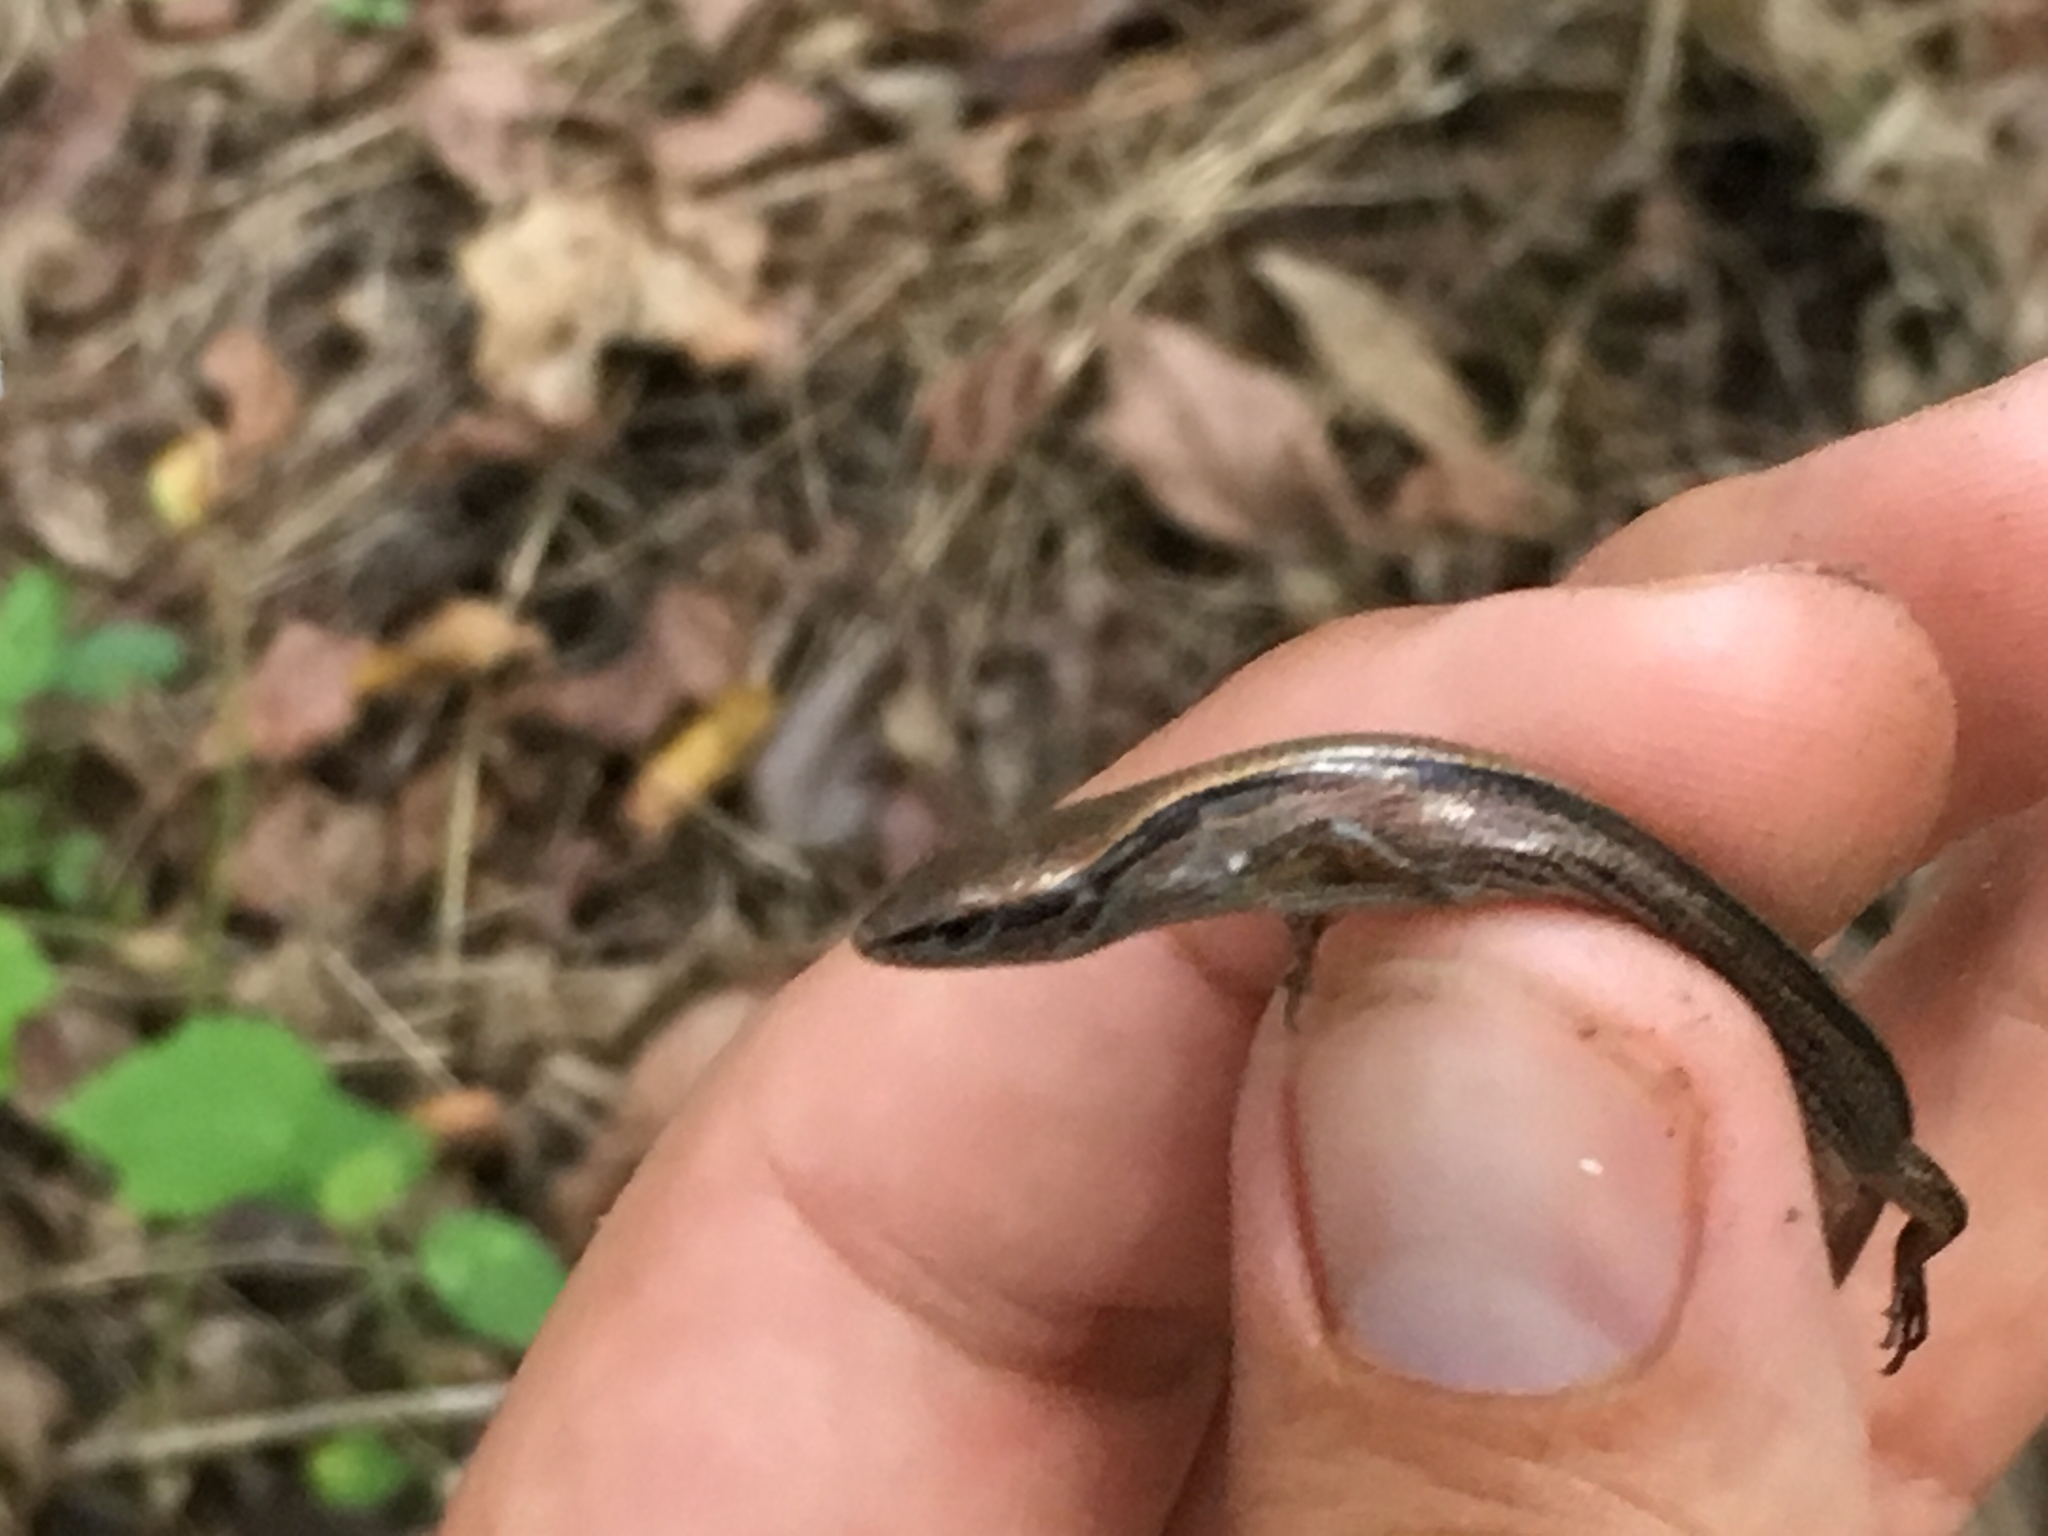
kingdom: Animalia
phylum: Chordata
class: Squamata
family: Scincidae
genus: Scincella
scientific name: Scincella lateralis
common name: Ground skink
